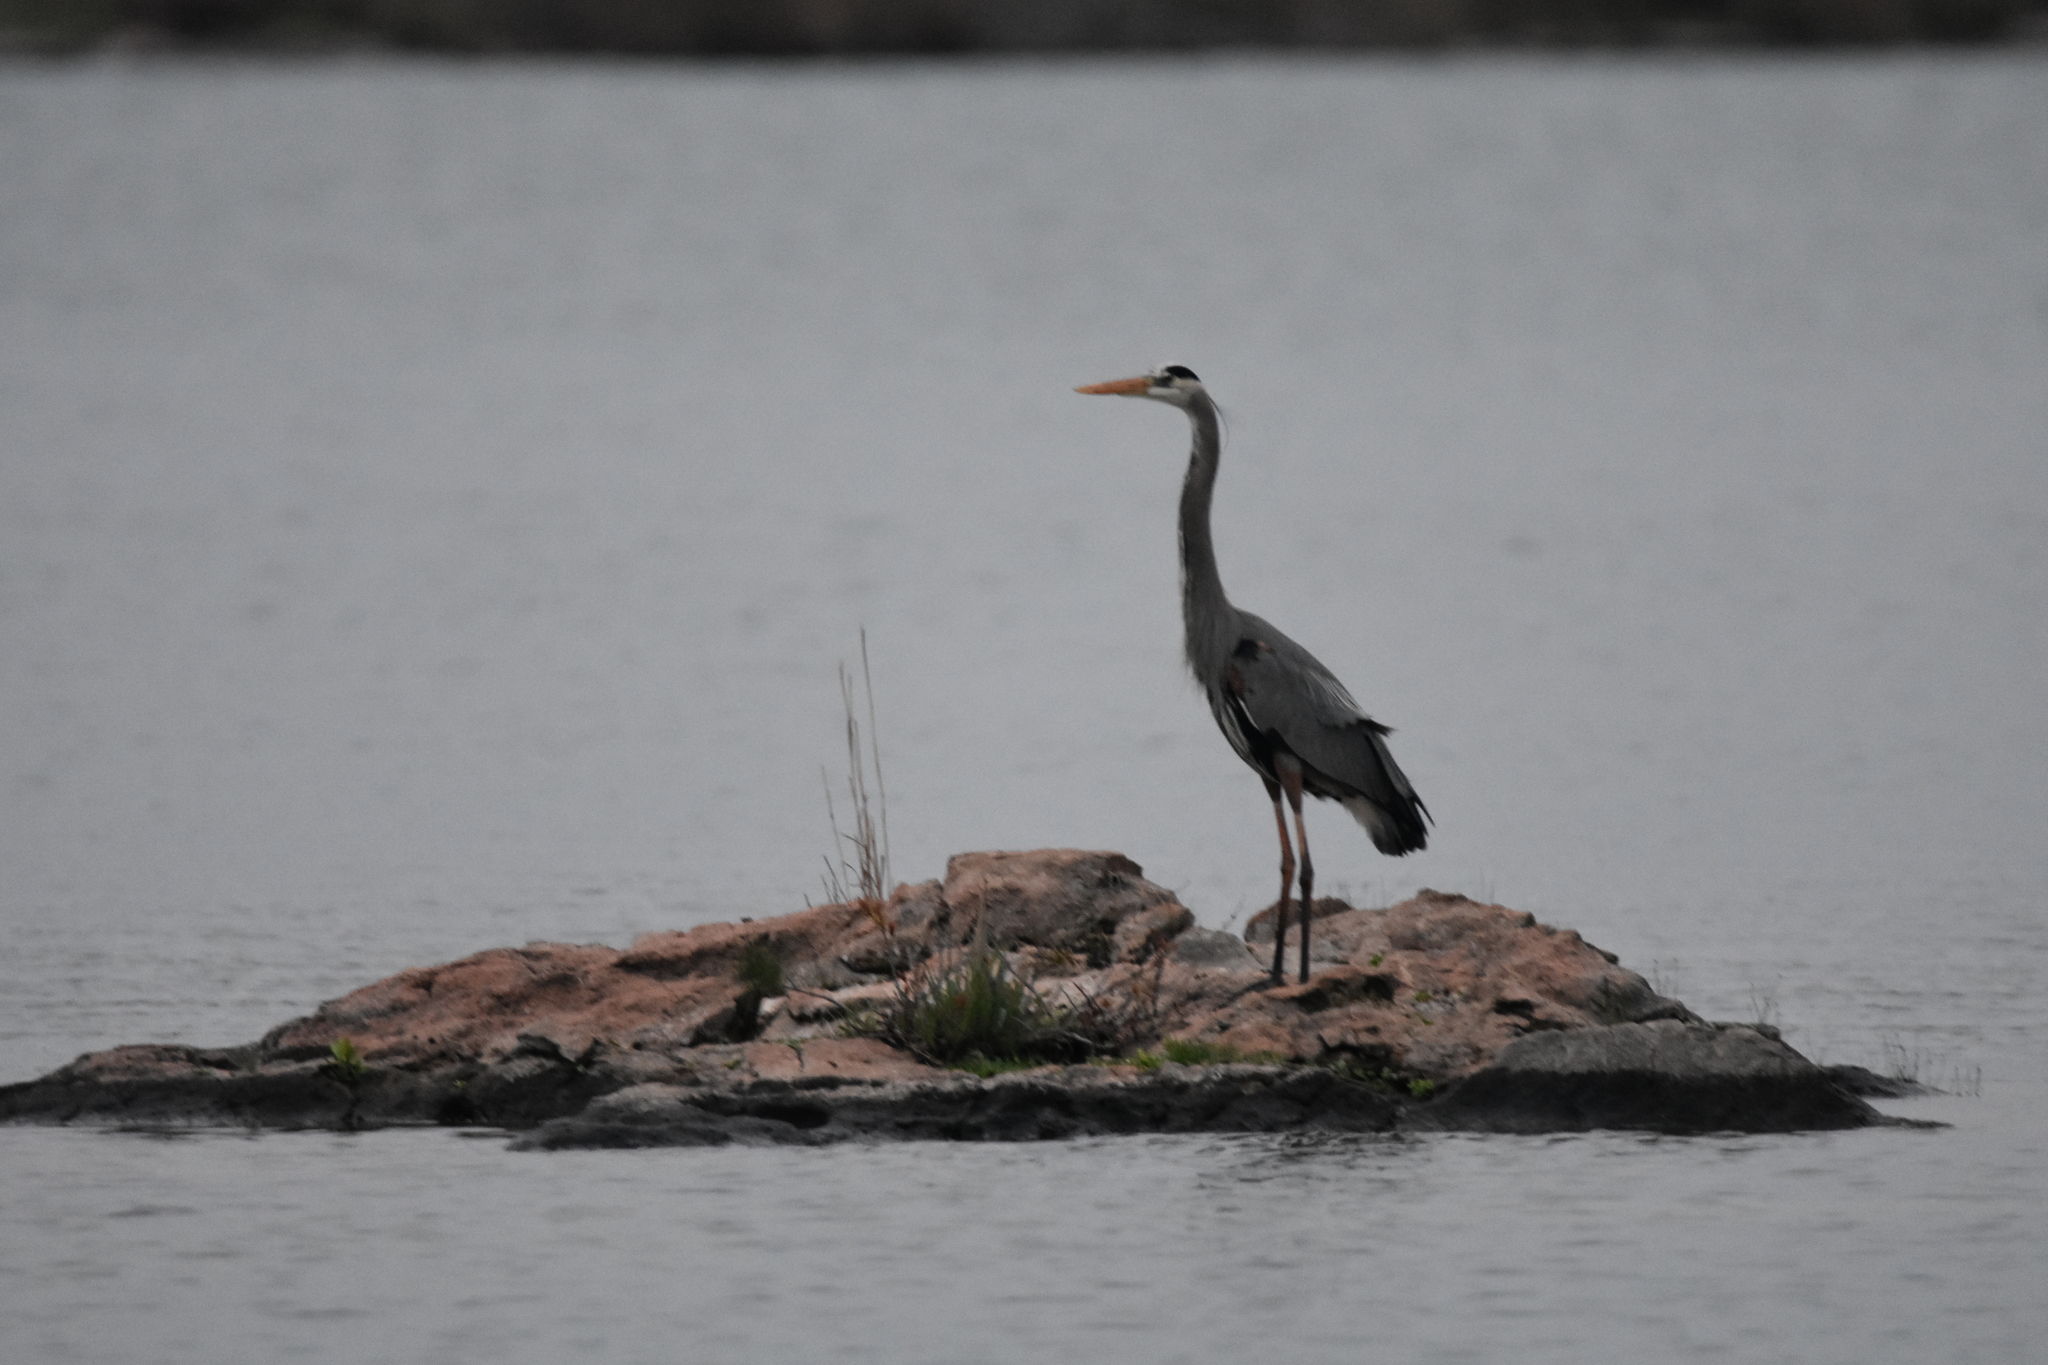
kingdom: Animalia
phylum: Chordata
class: Aves
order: Pelecaniformes
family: Ardeidae
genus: Ardea
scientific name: Ardea herodias
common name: Great blue heron
